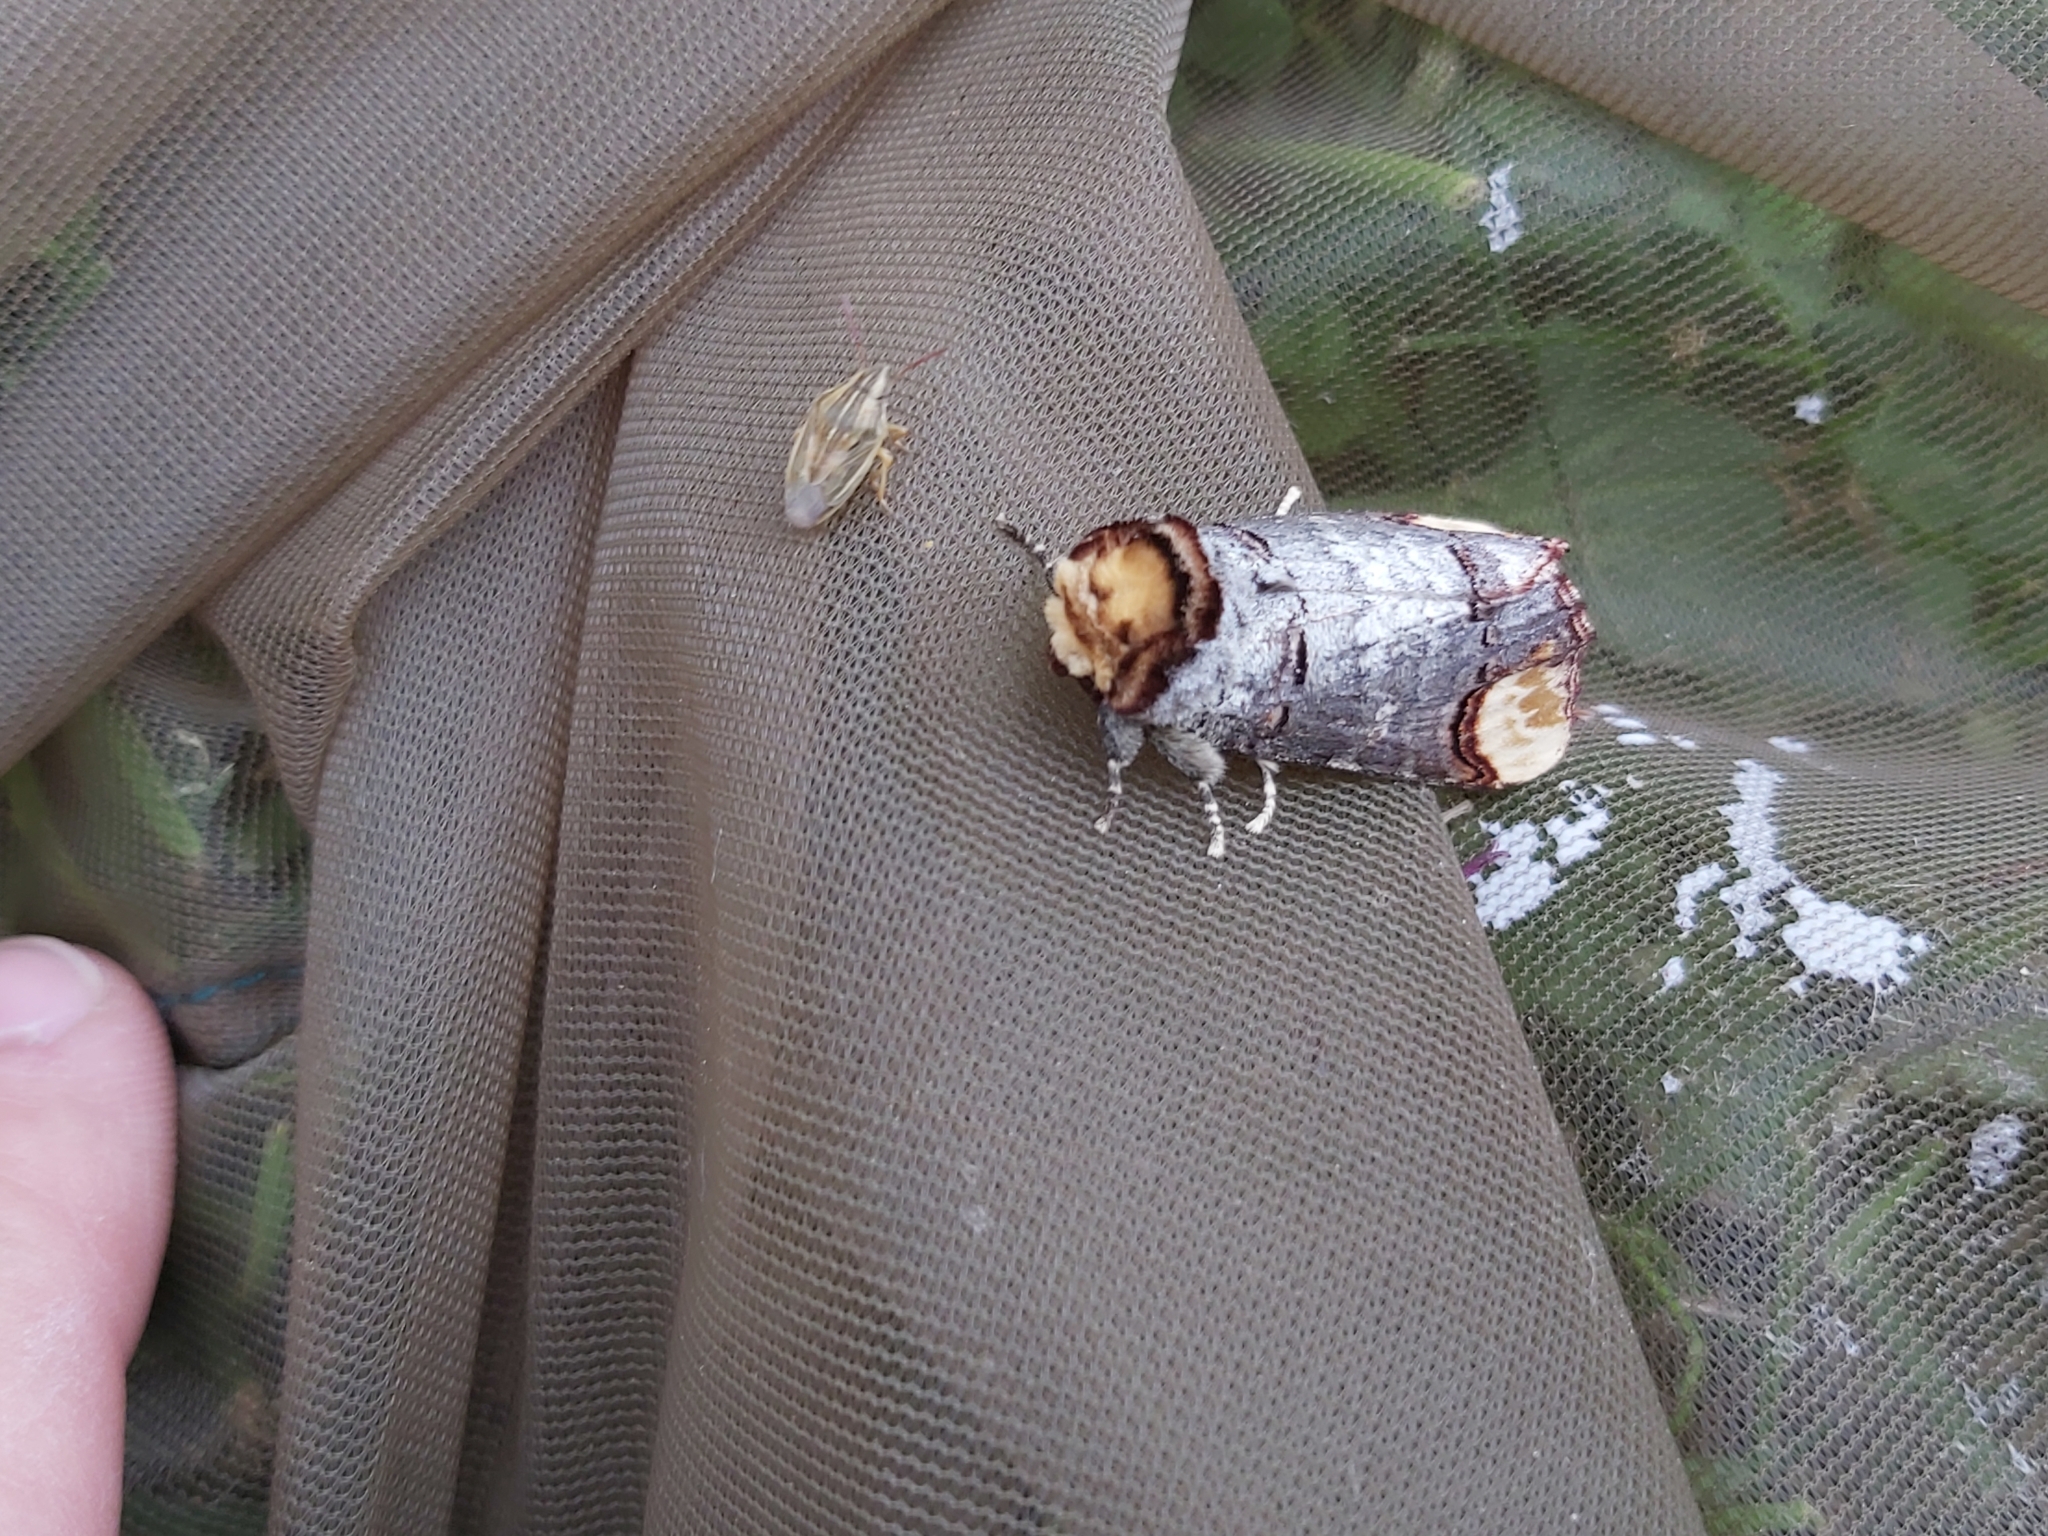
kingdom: Animalia
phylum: Arthropoda
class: Insecta
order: Lepidoptera
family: Notodontidae
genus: Phalera
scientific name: Phalera bucephala
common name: Buff-tip
